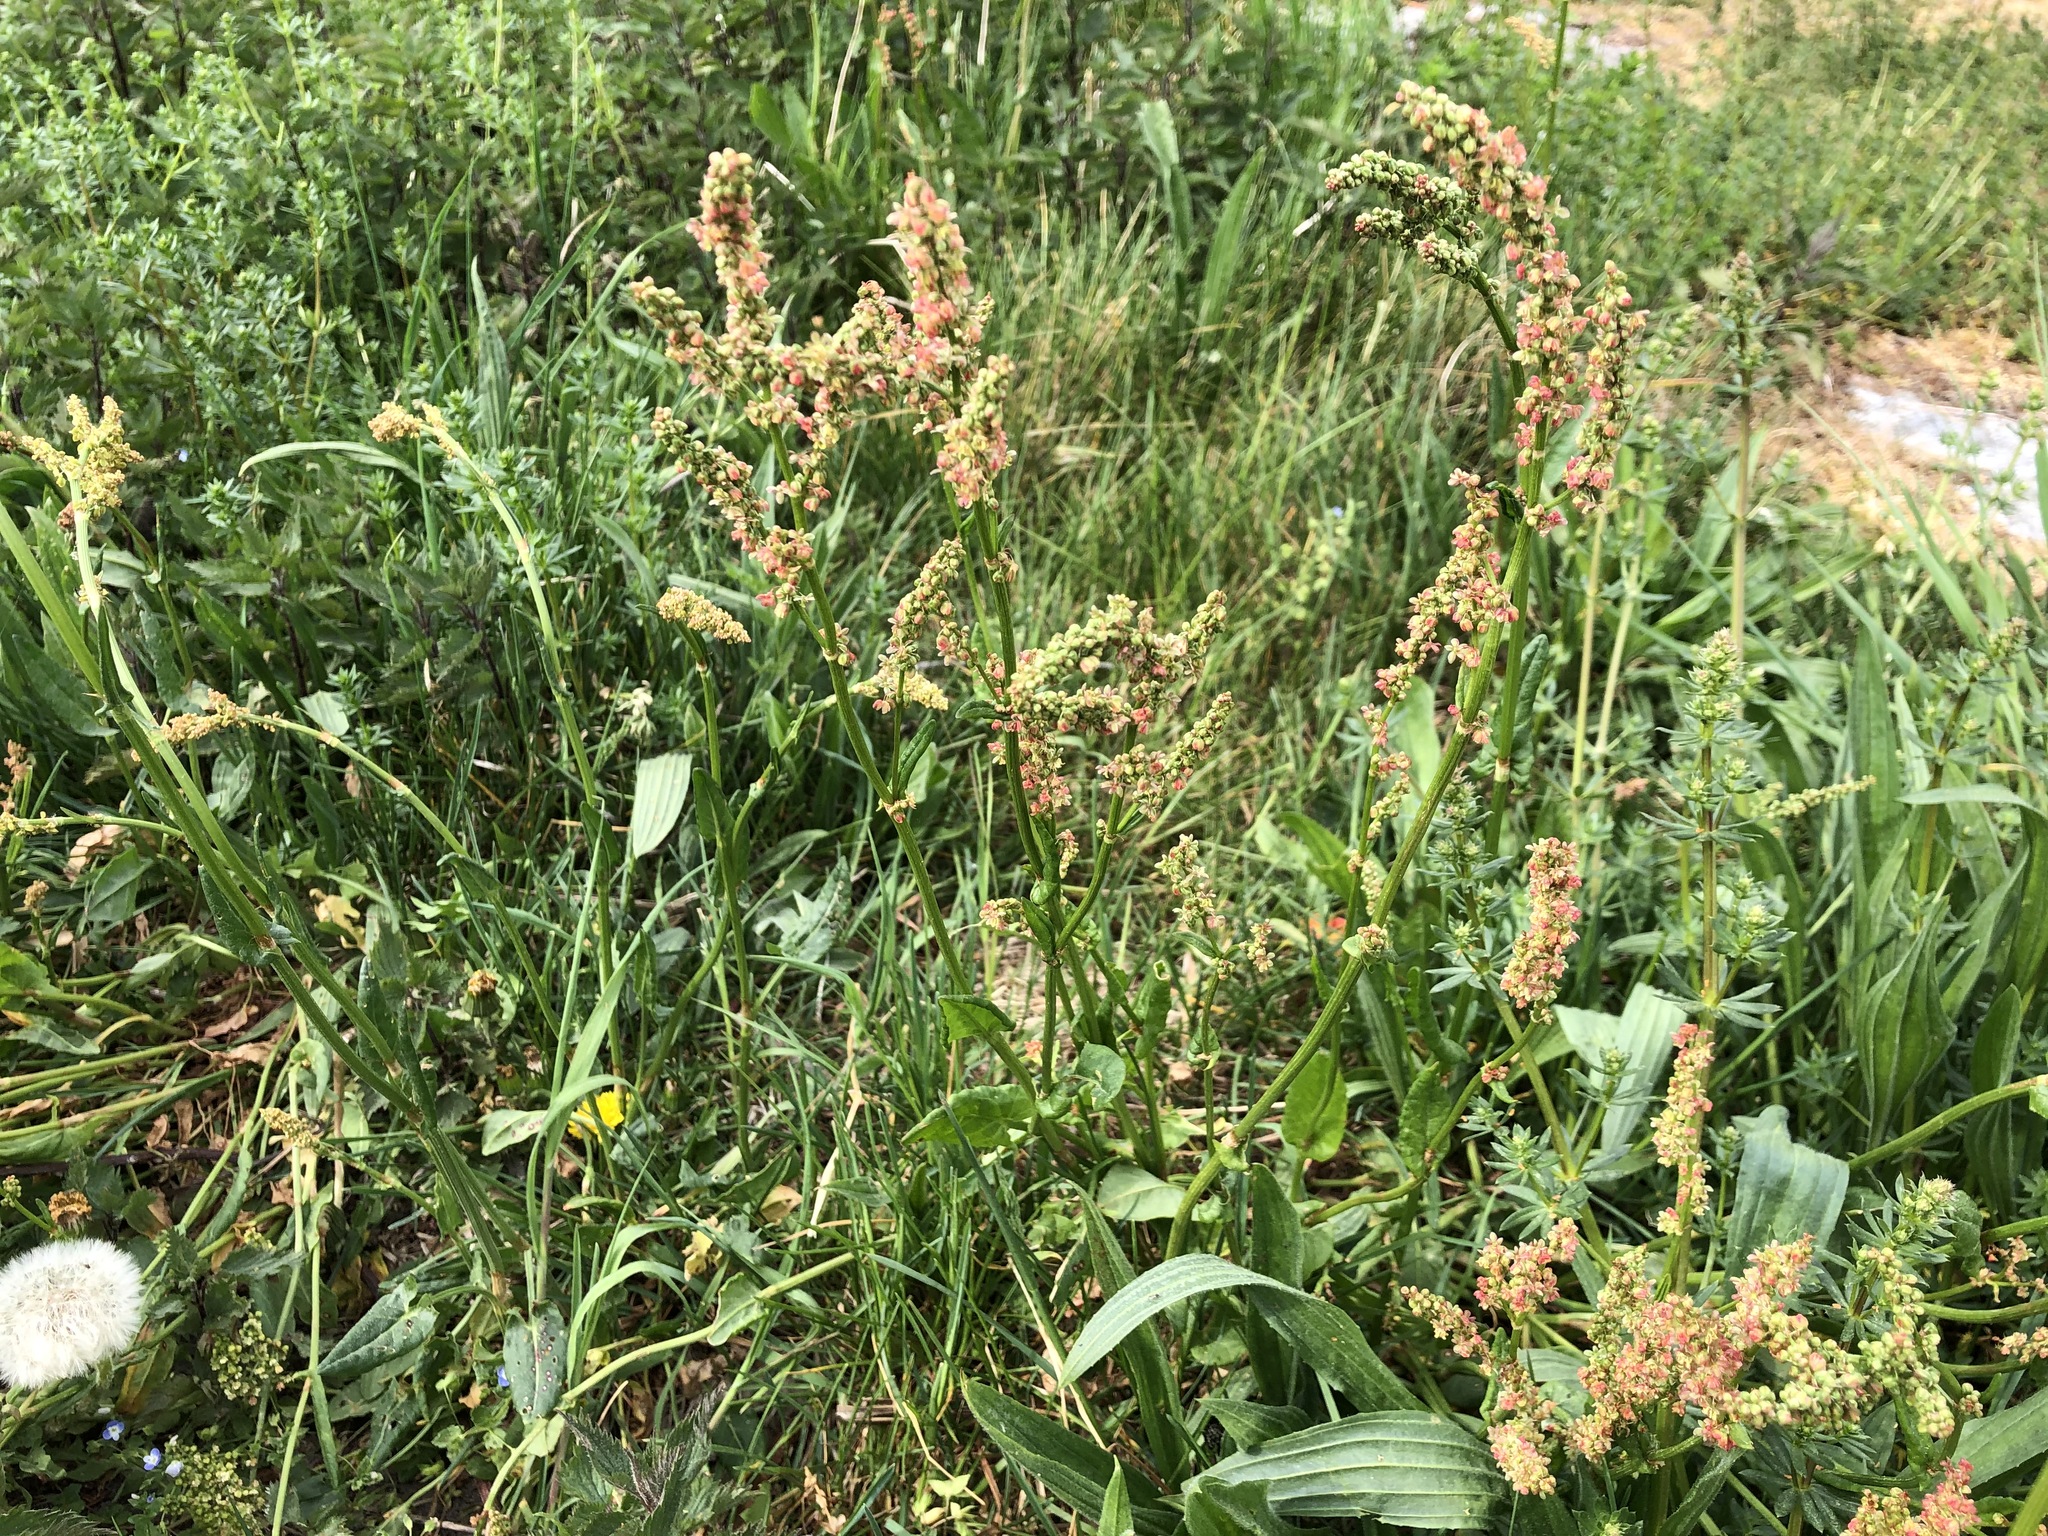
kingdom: Plantae
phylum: Tracheophyta
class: Magnoliopsida
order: Caryophyllales
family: Polygonaceae
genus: Rumex
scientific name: Rumex acetosa
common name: Garden sorrel
